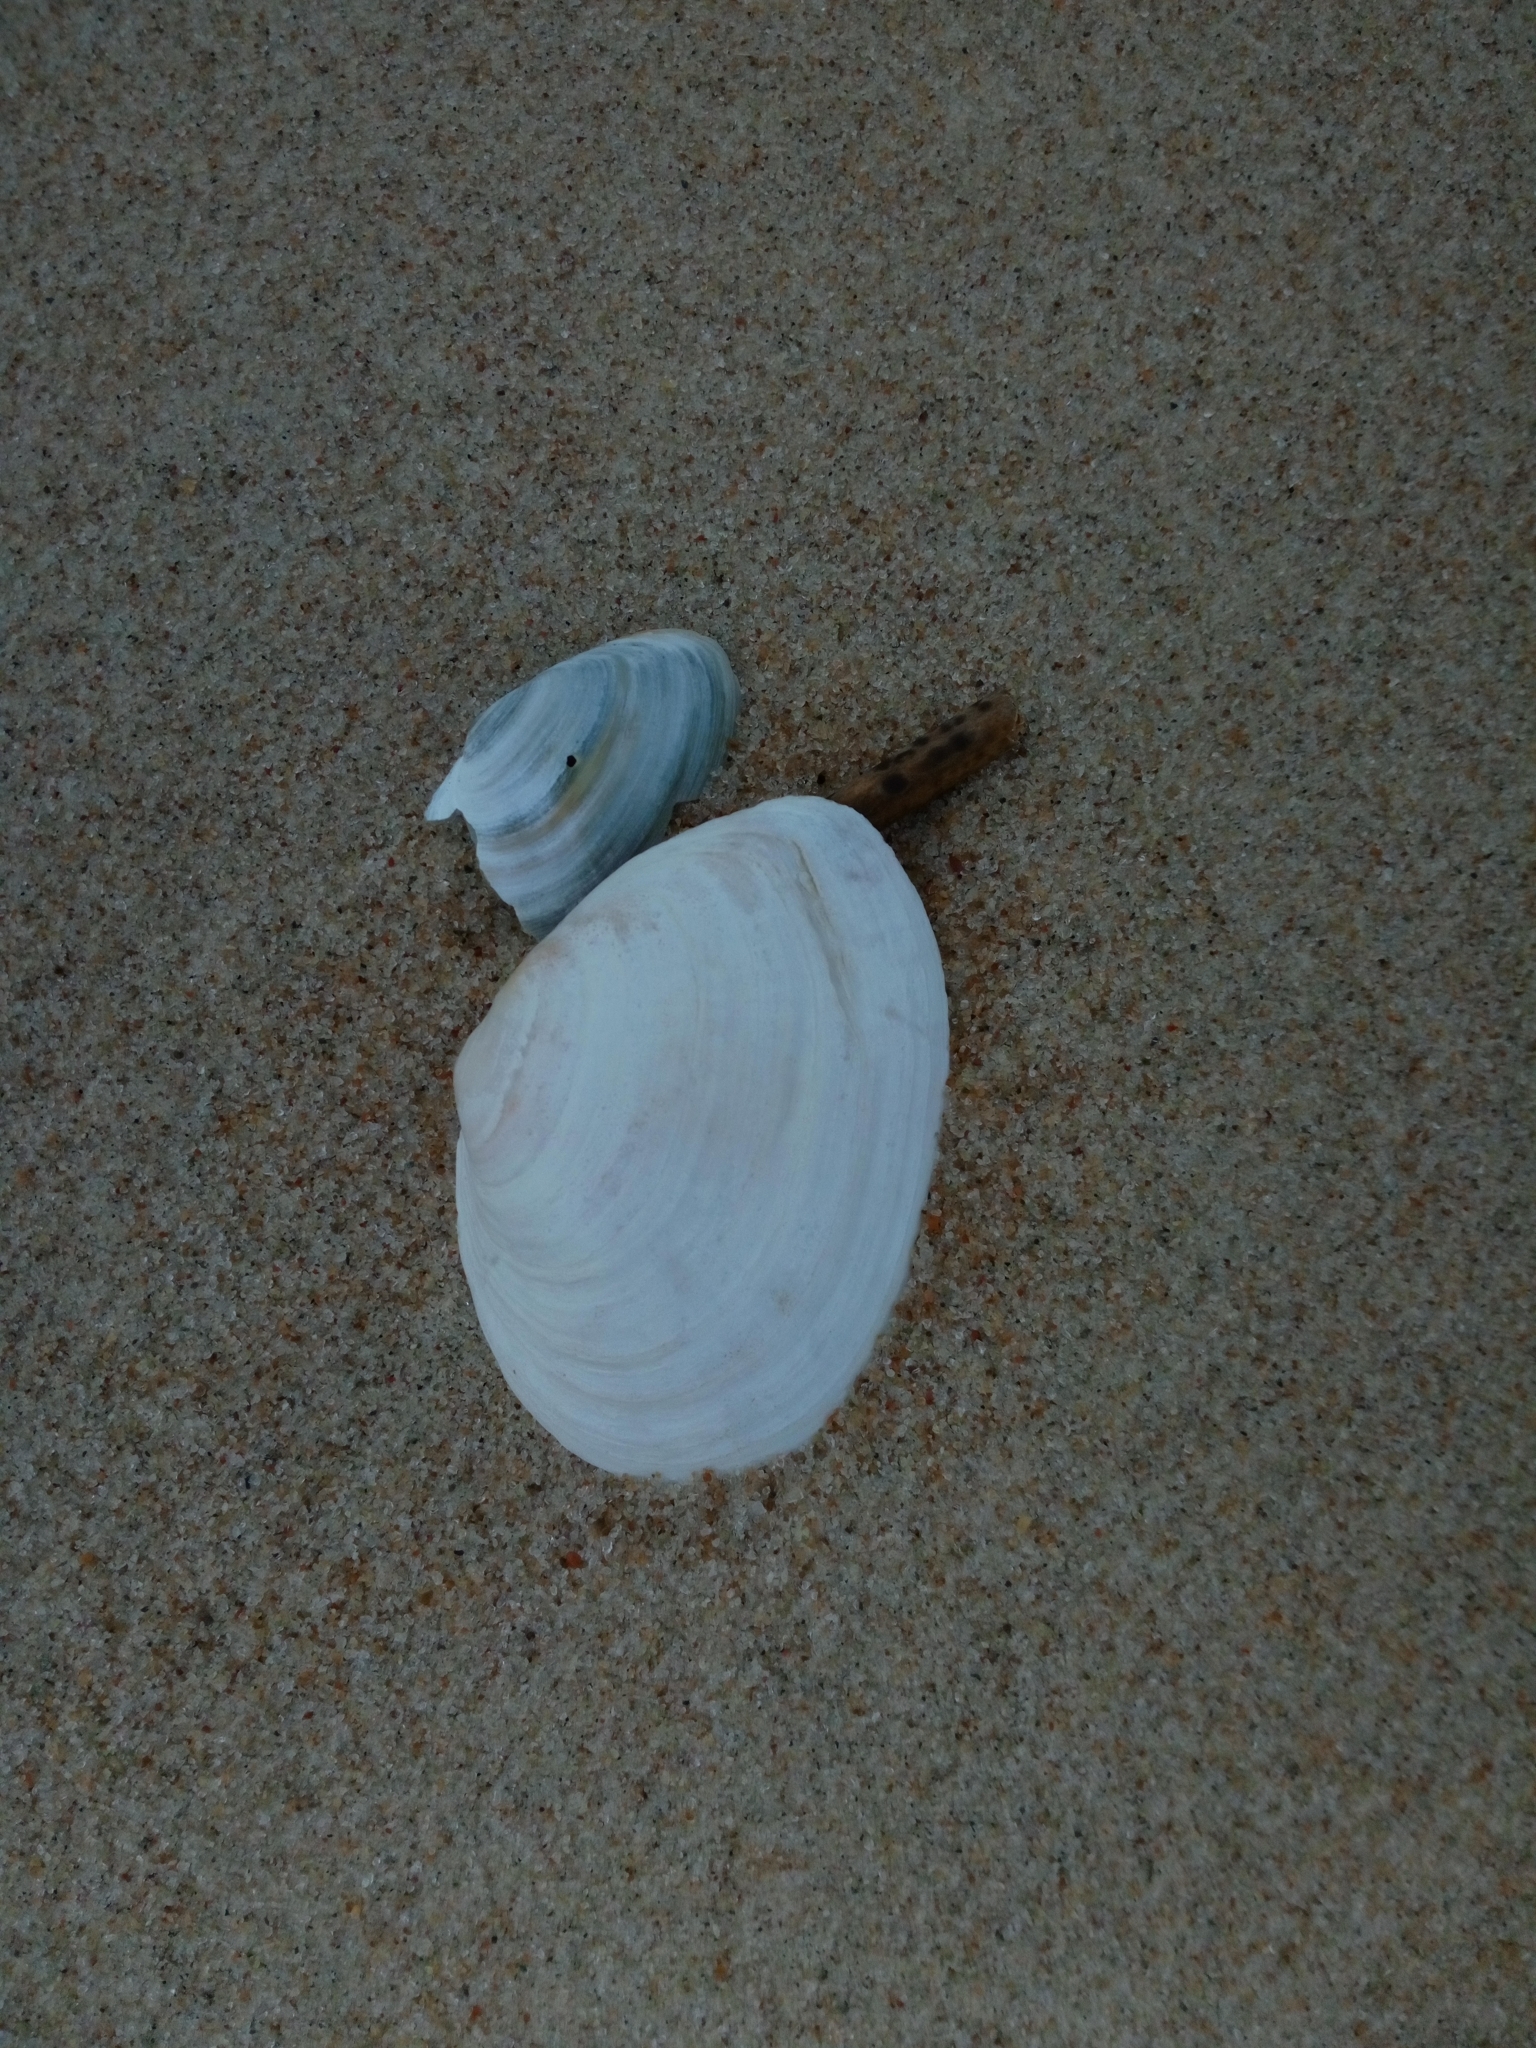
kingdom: Animalia
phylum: Mollusca
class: Bivalvia
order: Myida
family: Myidae
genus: Mya
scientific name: Mya arenaria
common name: Soft-shelled clam
